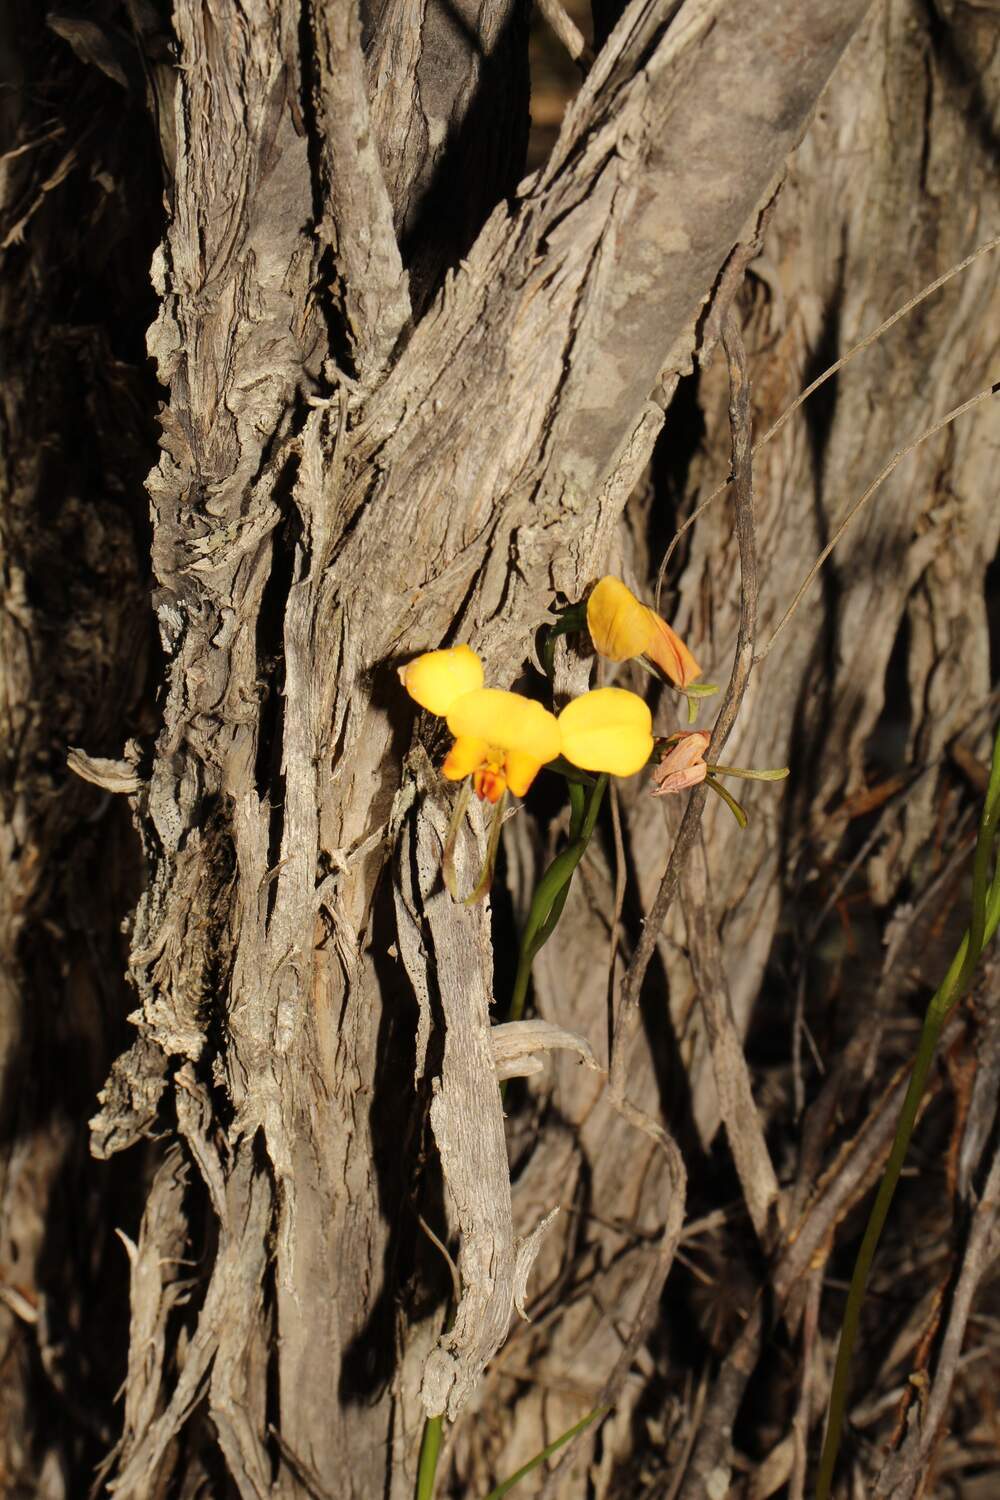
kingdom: Plantae
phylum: Tracheophyta
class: Liliopsida
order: Asparagales
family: Orchidaceae
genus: Diuris
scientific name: Diuris hazeliae
